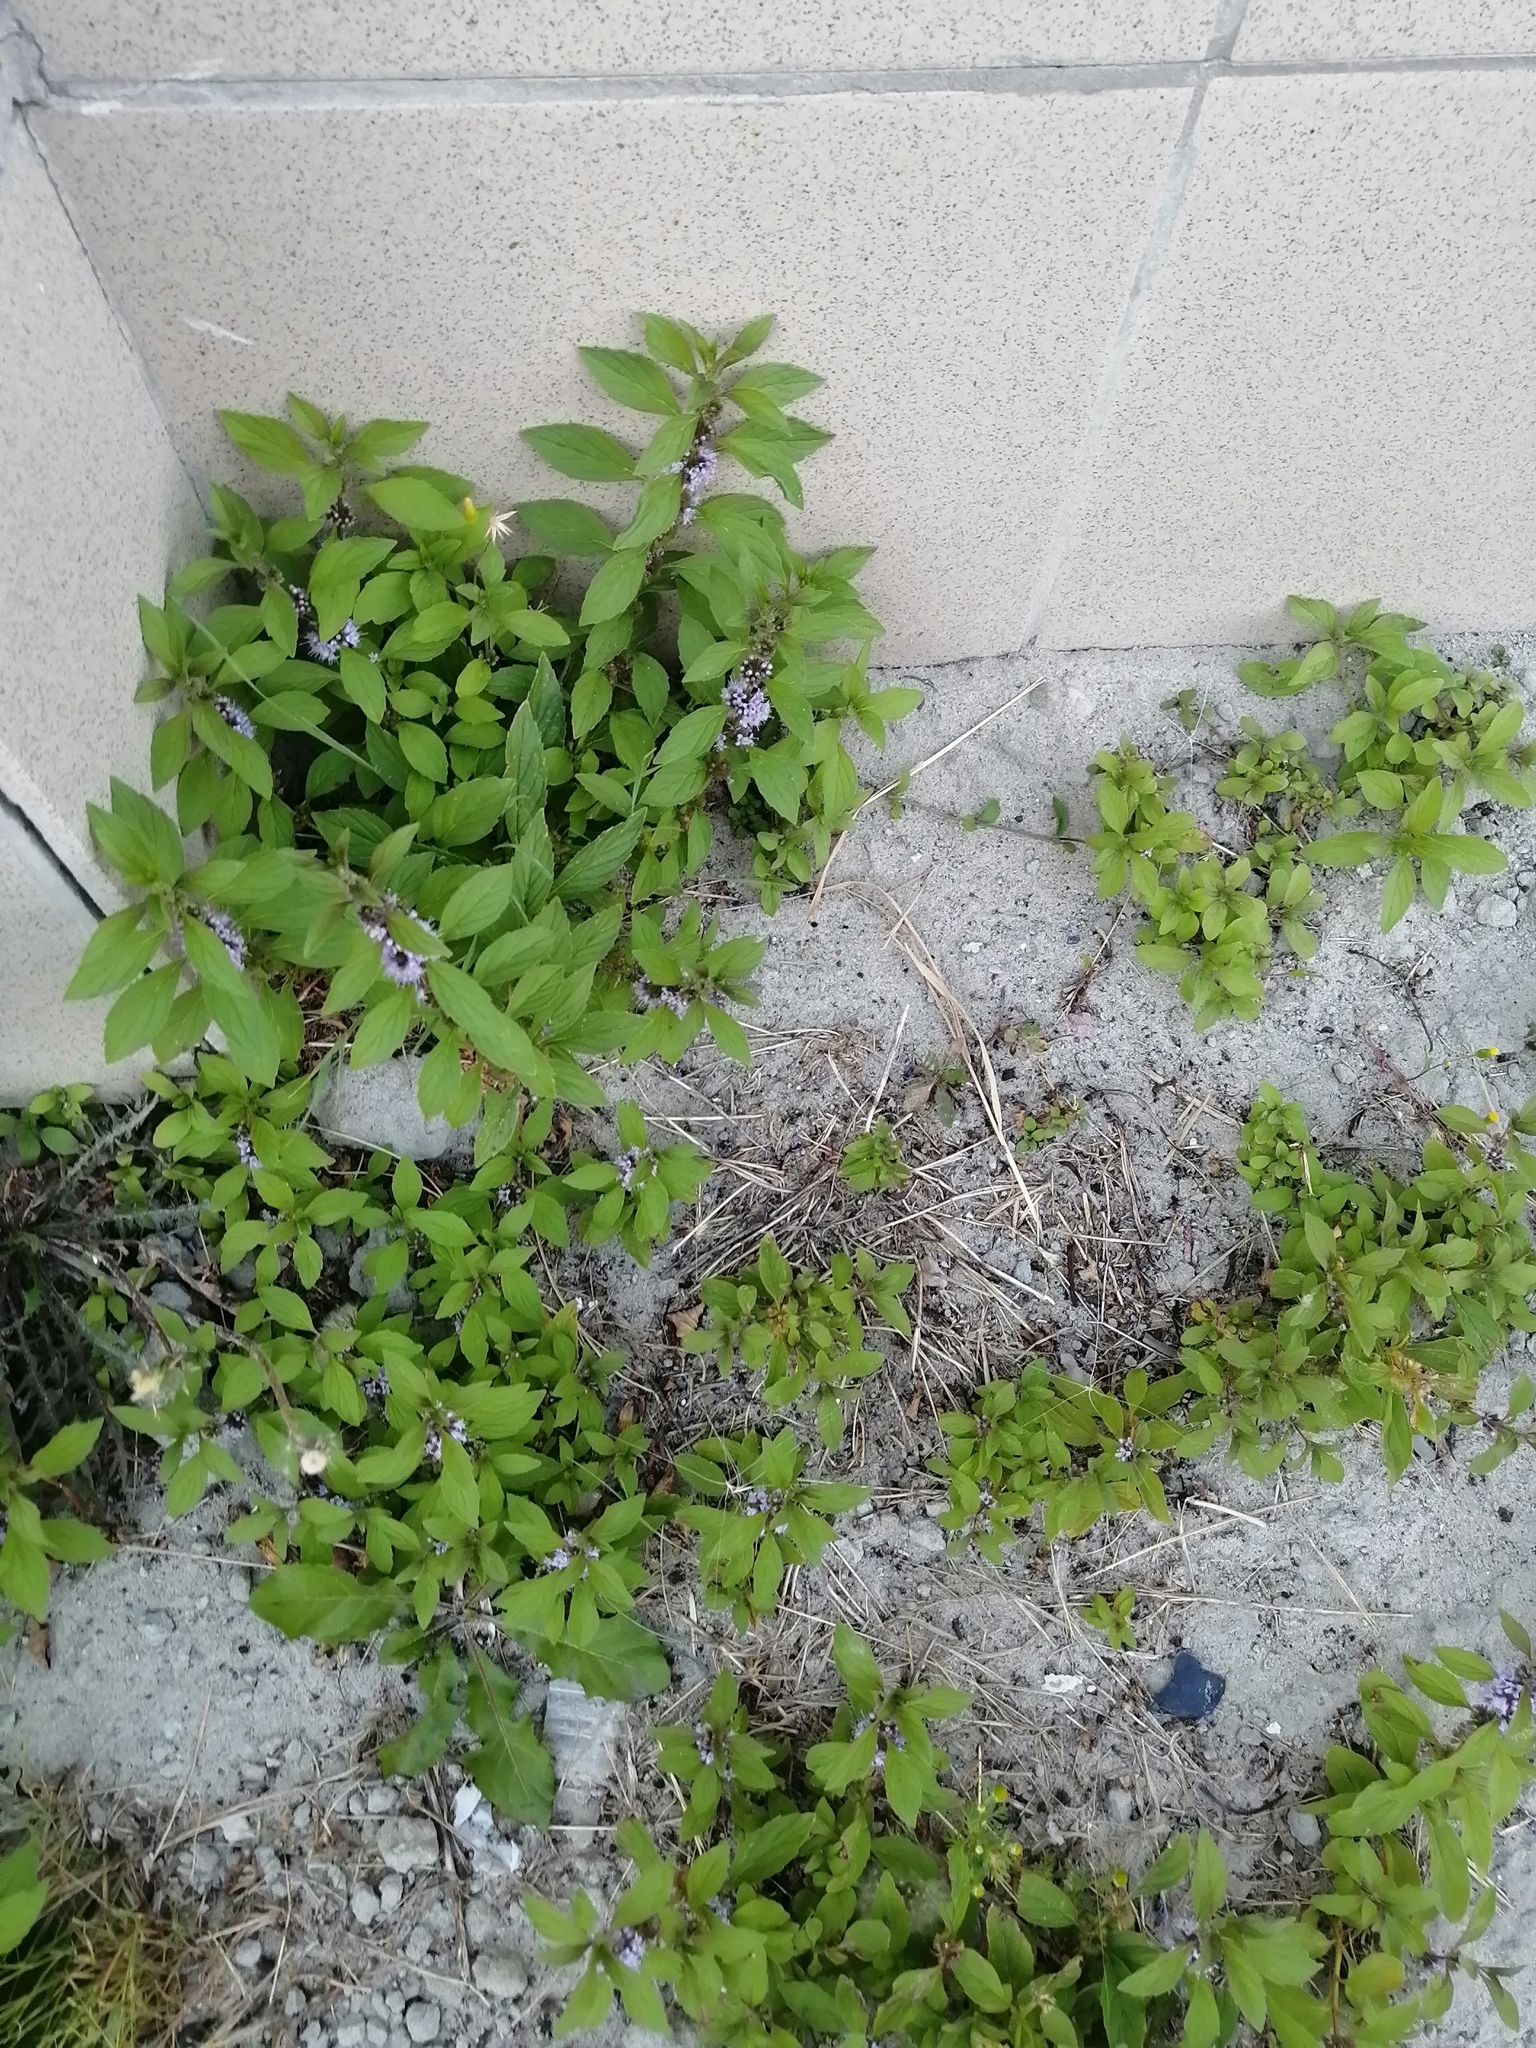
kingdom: Plantae
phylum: Tracheophyta
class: Magnoliopsida
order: Lamiales
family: Lamiaceae
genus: Mentha
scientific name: Mentha arvensis
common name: Corn mint
